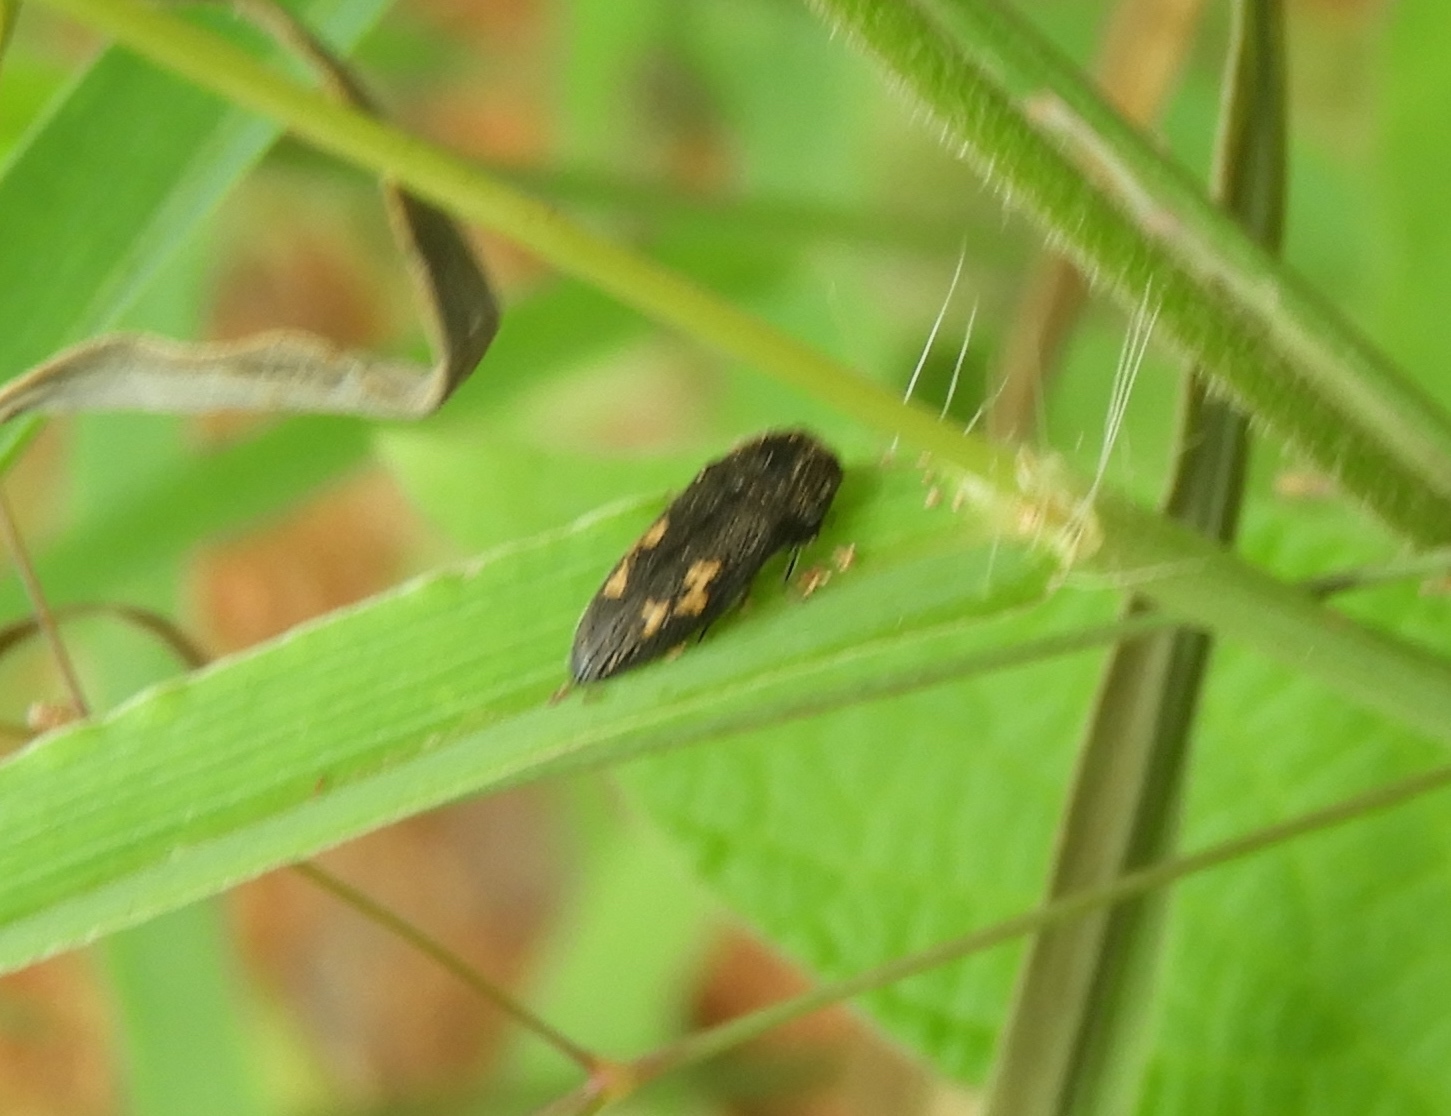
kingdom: Animalia
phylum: Arthropoda
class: Insecta
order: Coleoptera
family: Buprestidae
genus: Acmaeodera
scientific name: Acmaeodera
